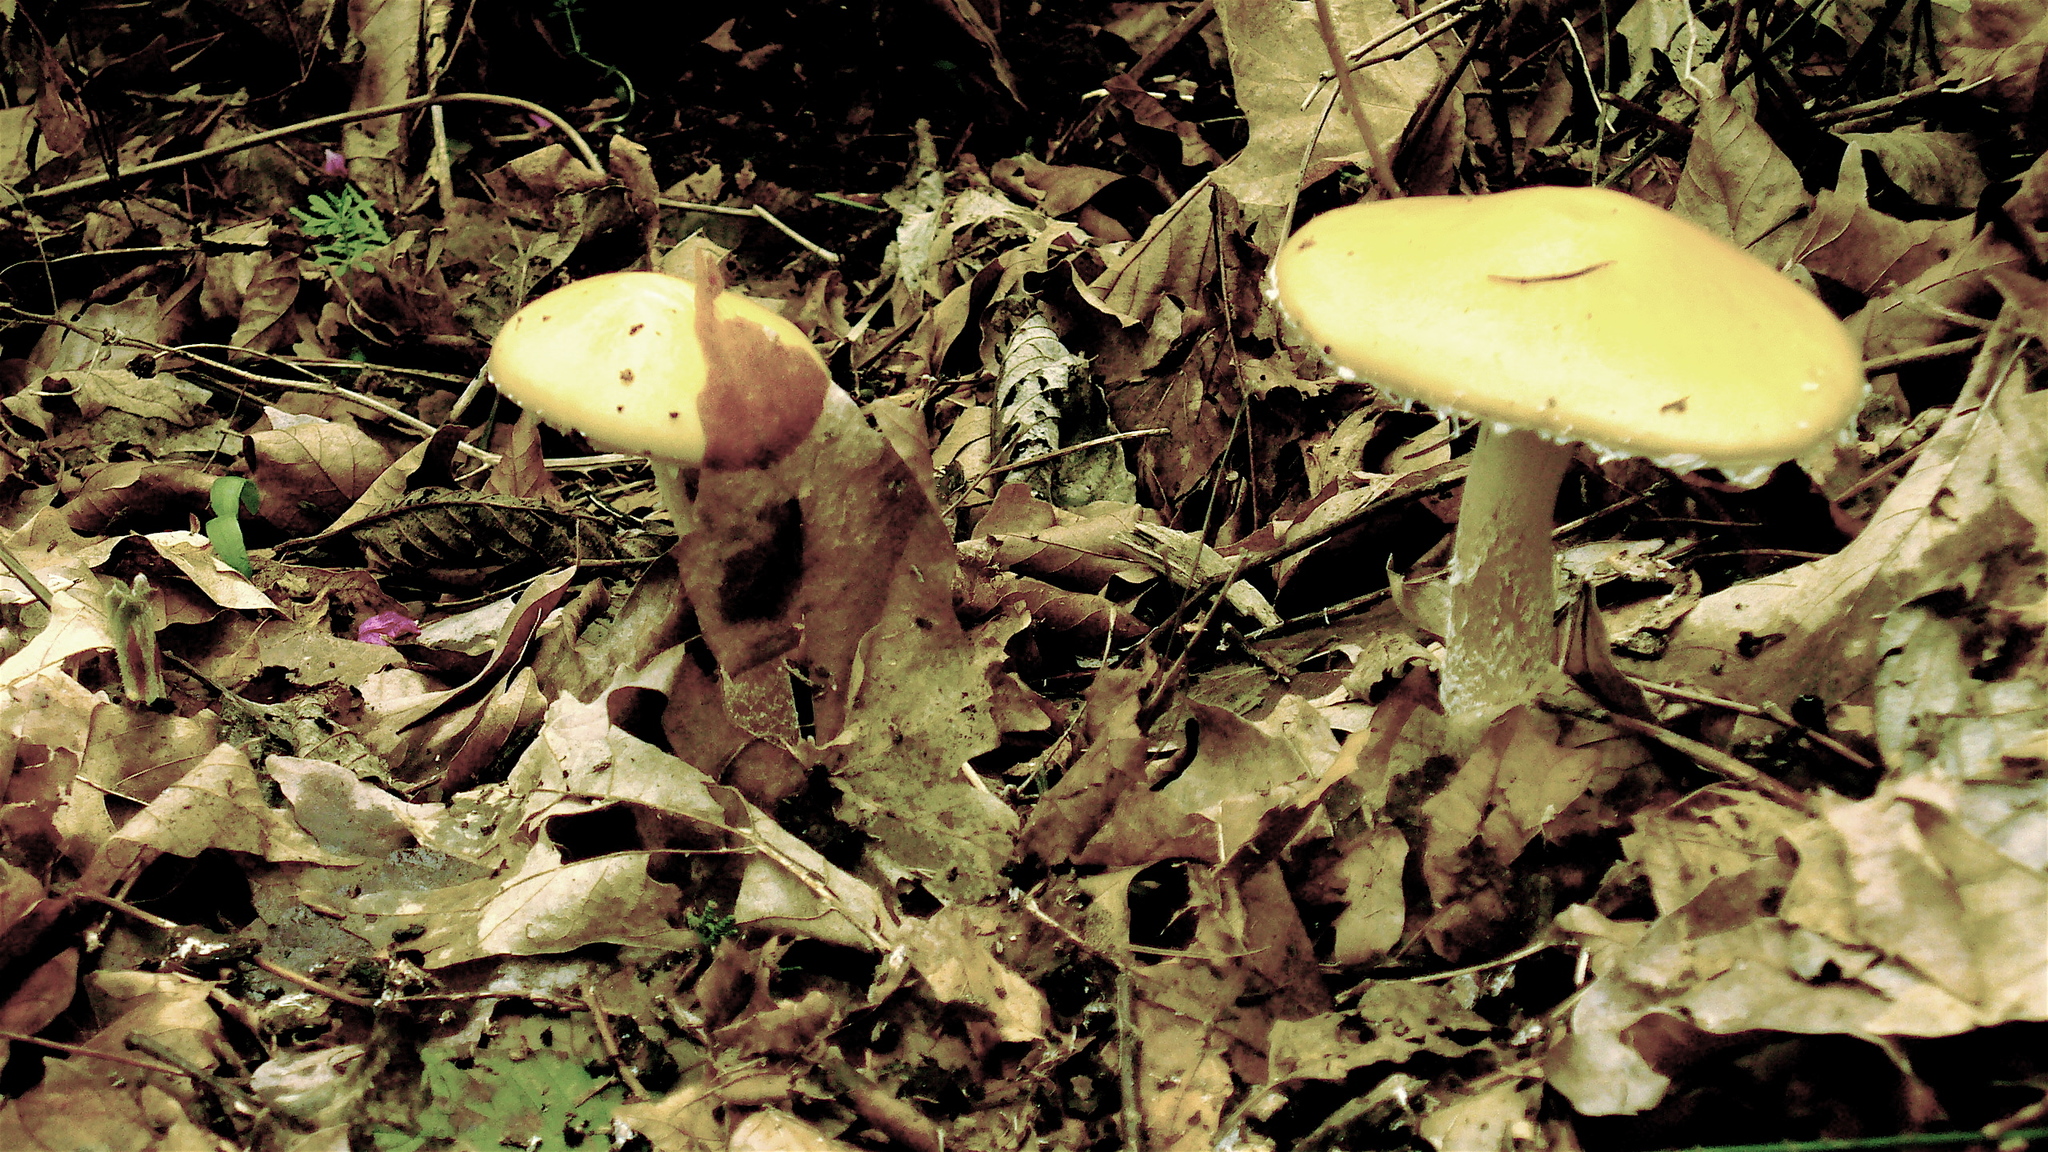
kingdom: Fungi
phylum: Basidiomycota
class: Agaricomycetes
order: Agaricales
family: Strophariaceae
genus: Stropharia
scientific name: Stropharia ambigua
